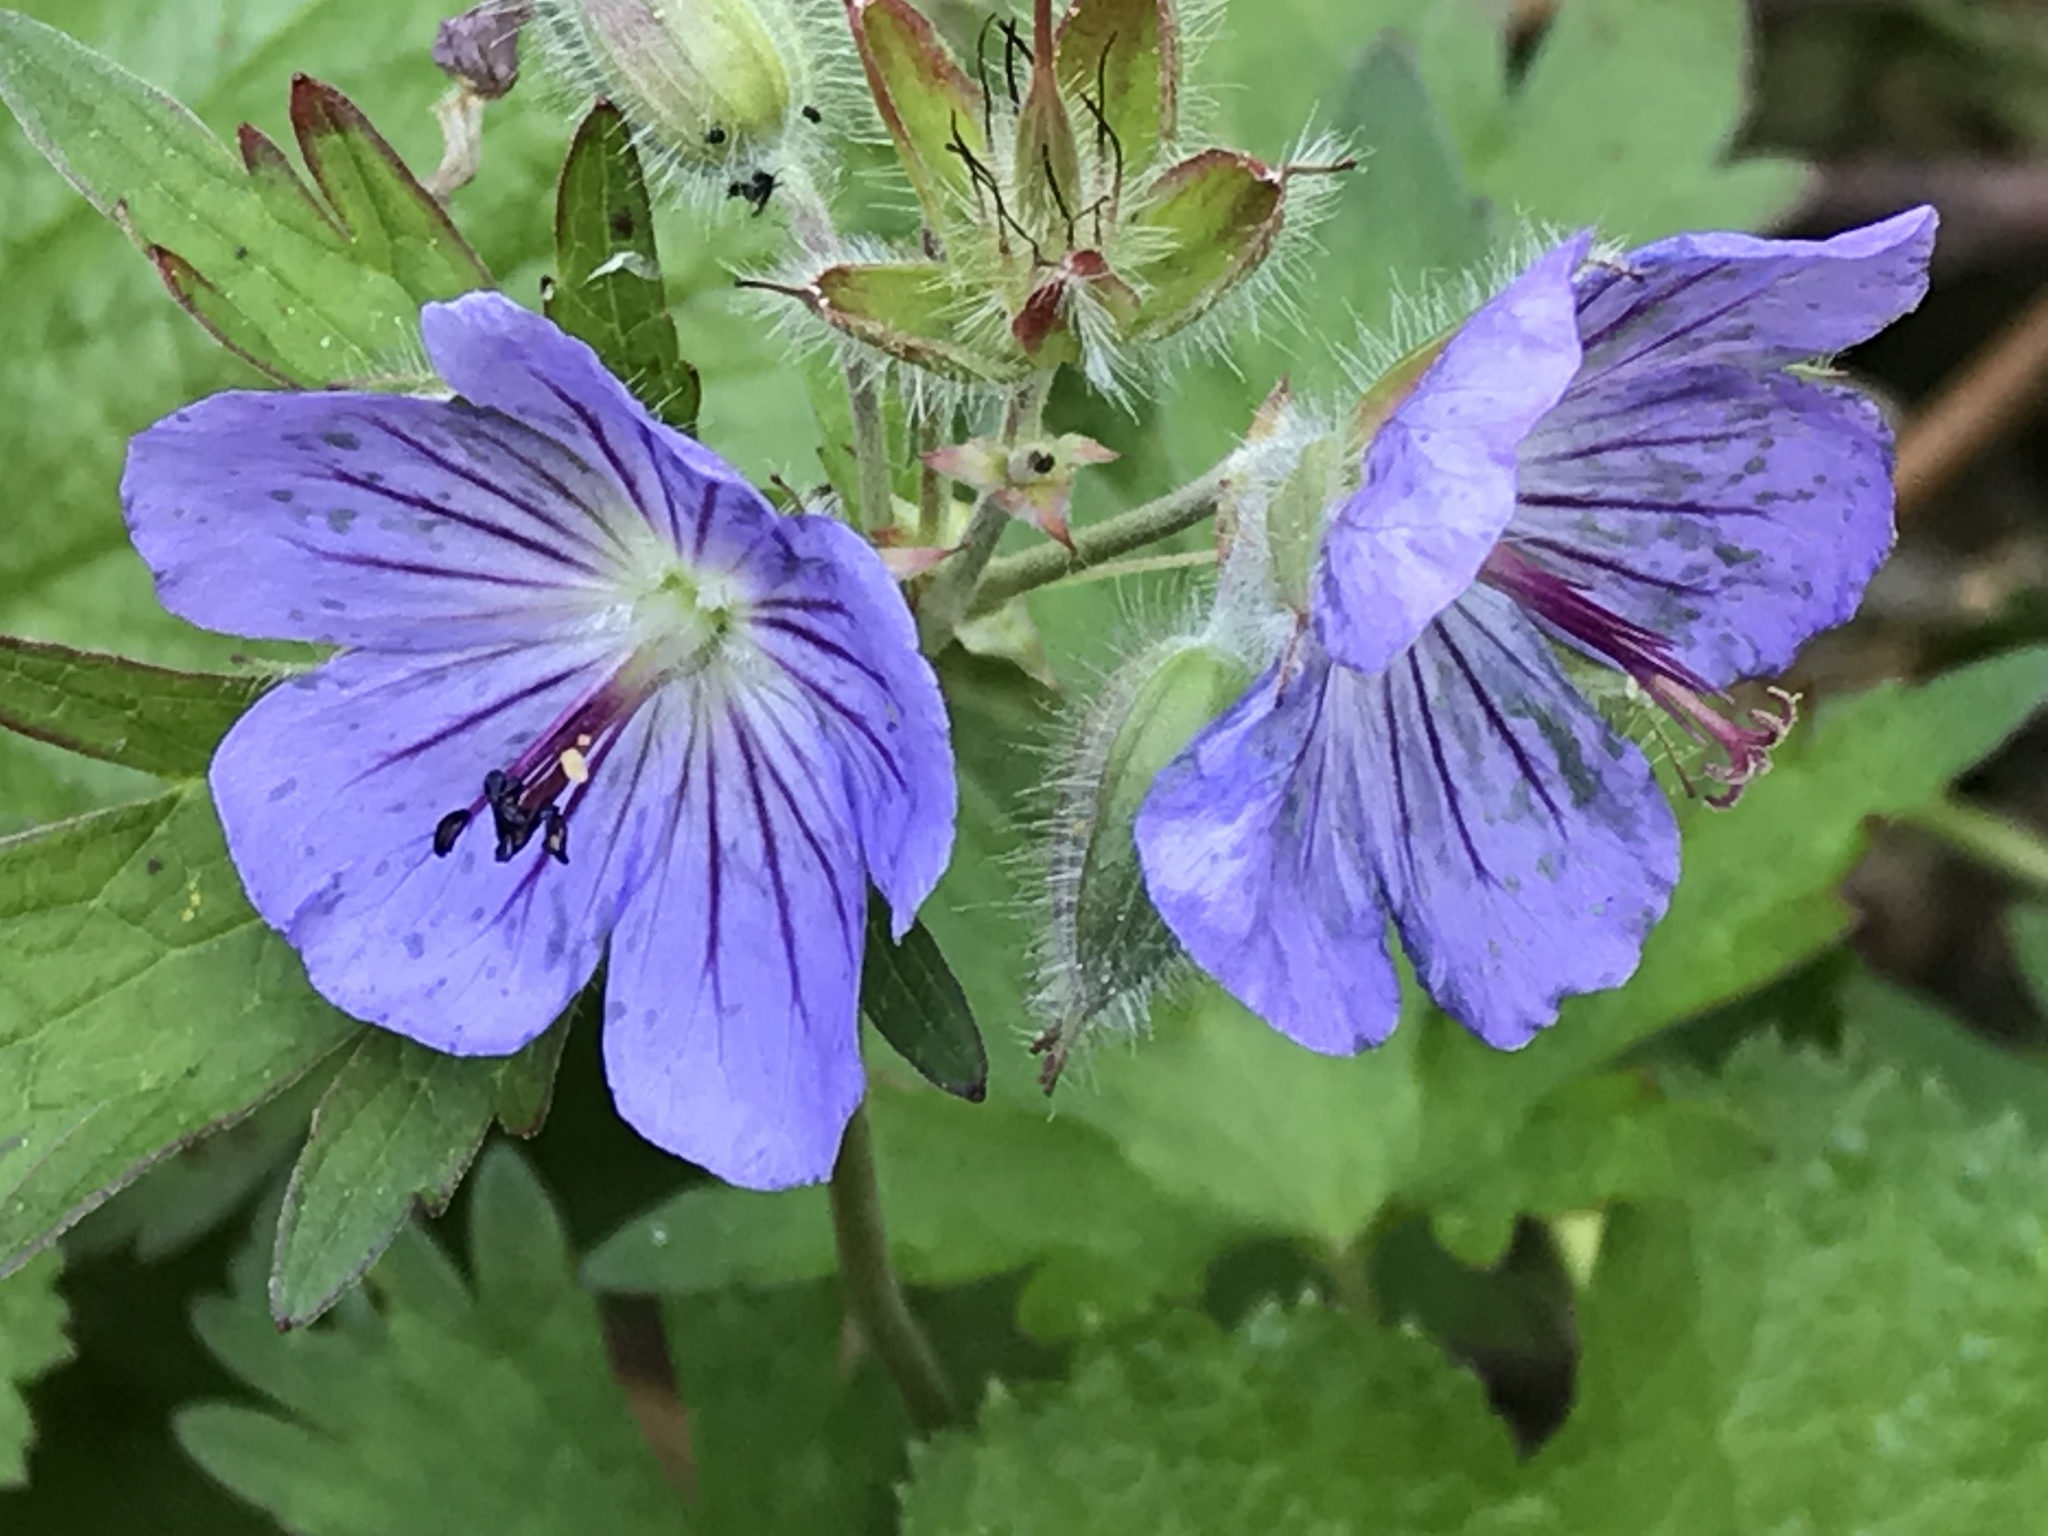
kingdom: Plantae
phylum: Tracheophyta
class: Magnoliopsida
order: Geraniales
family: Geraniaceae
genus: Geranium
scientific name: Geranium erianthum
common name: Northern crane's-bill
